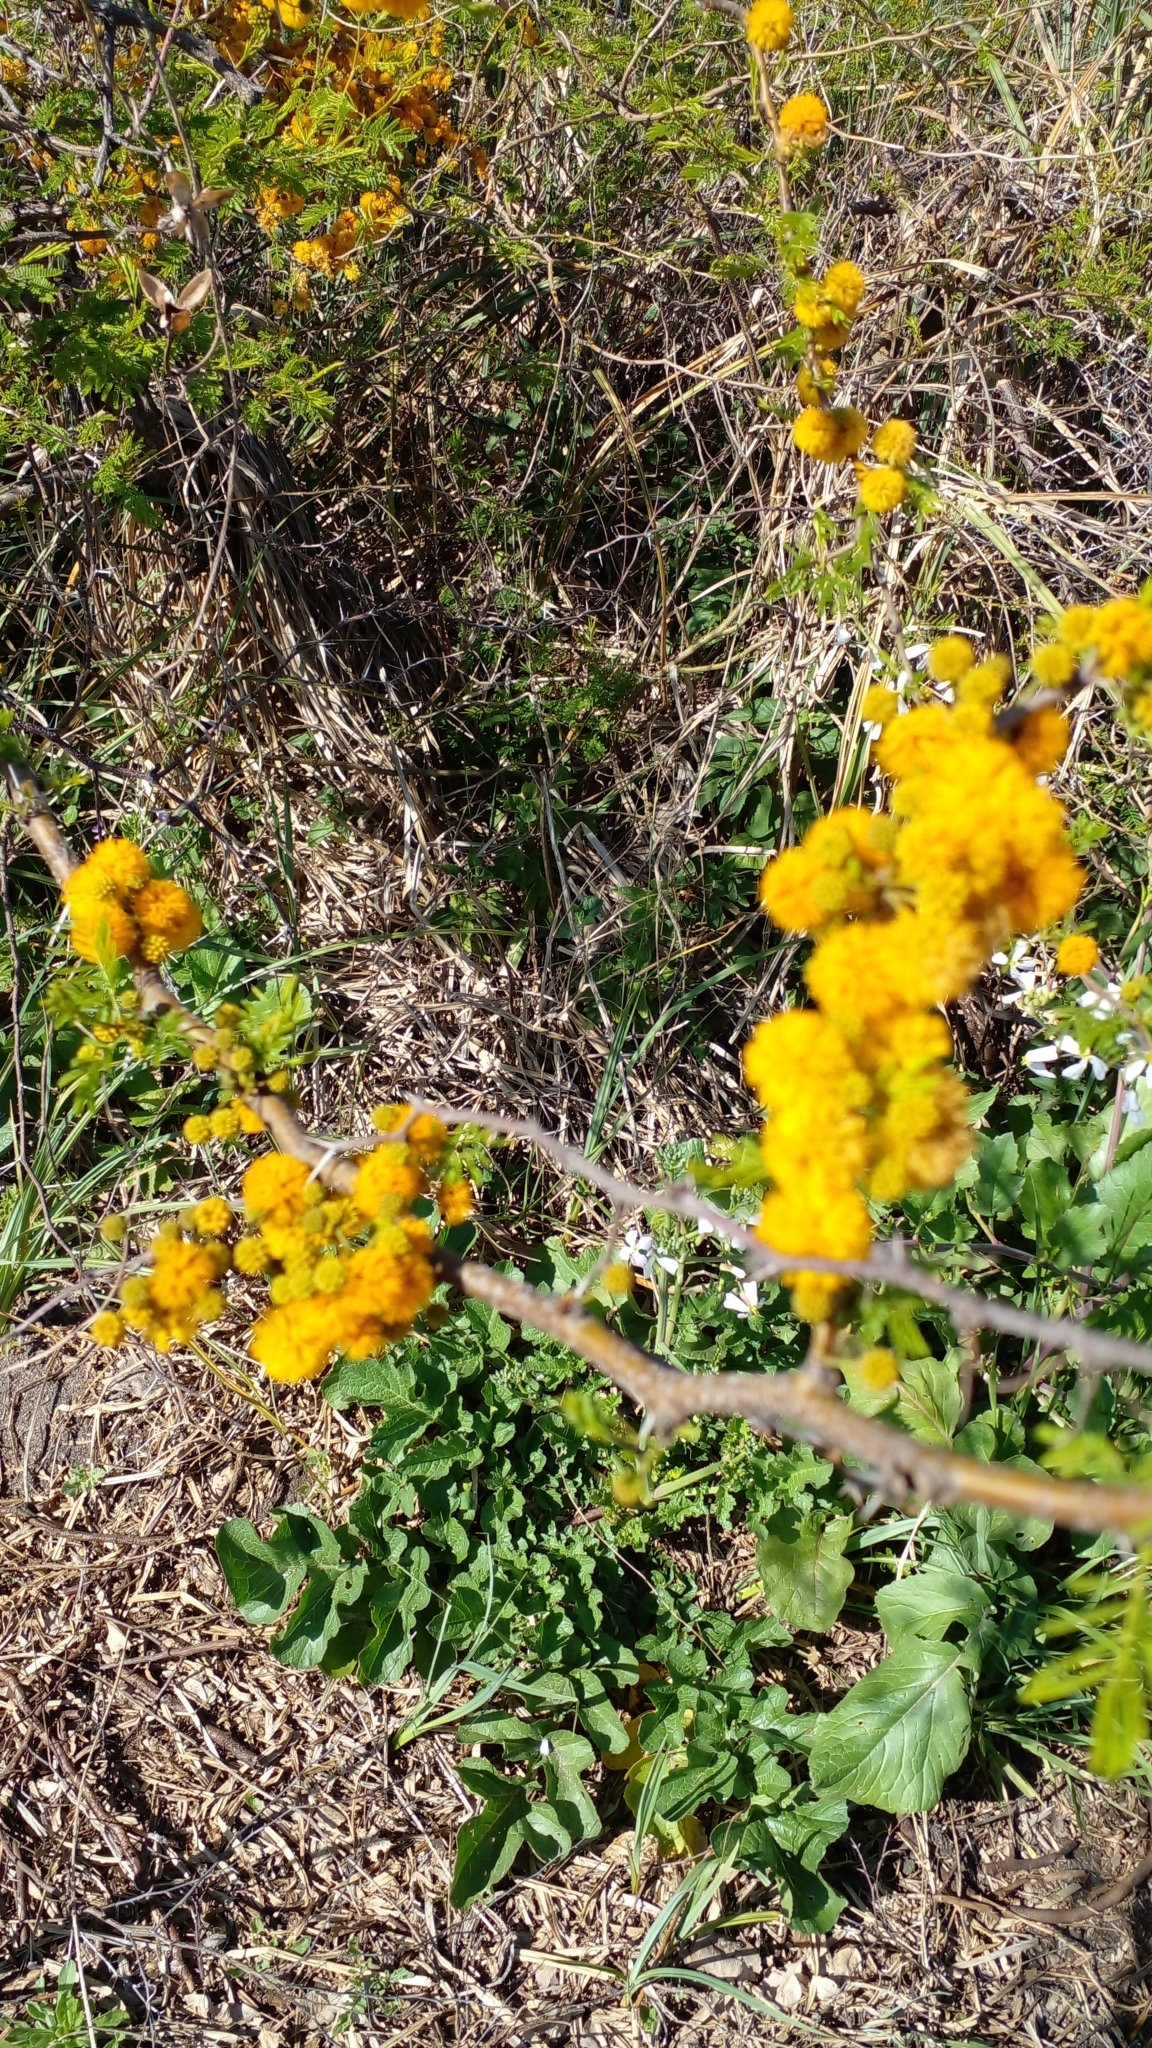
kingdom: Plantae
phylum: Tracheophyta
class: Magnoliopsida
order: Fabales
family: Fabaceae
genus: Vachellia
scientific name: Vachellia caven
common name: Roman cassie
